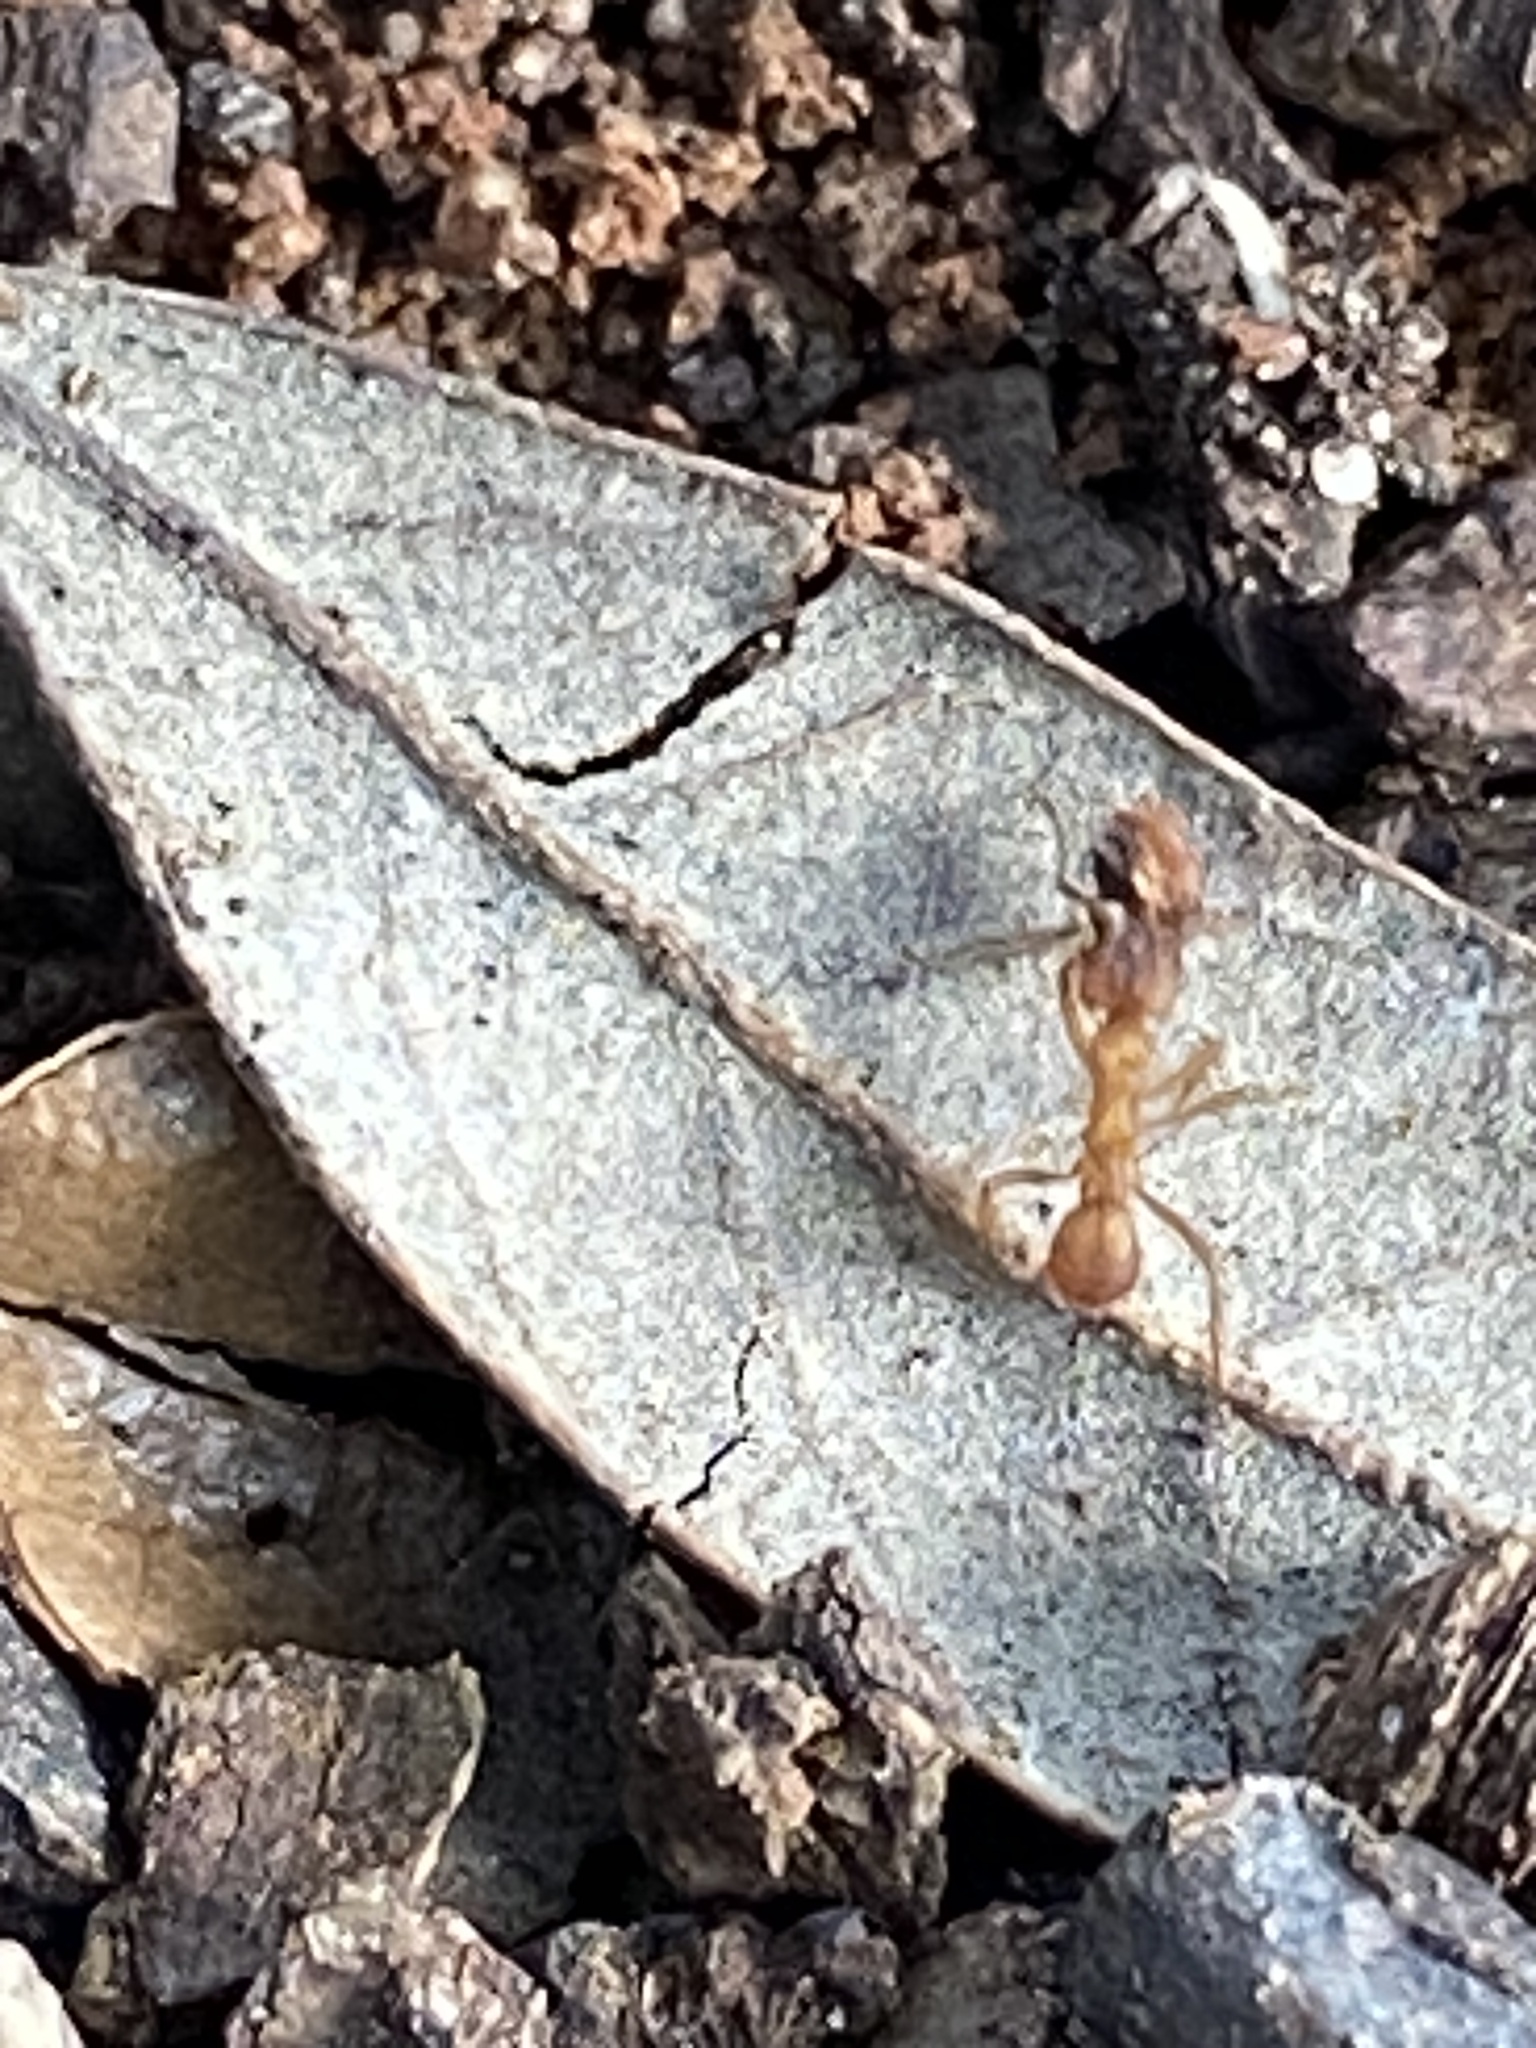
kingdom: Animalia
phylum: Arthropoda
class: Insecta
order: Hymenoptera
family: Formicidae
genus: Trachymyrmex
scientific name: Trachymyrmex septentrionalis
